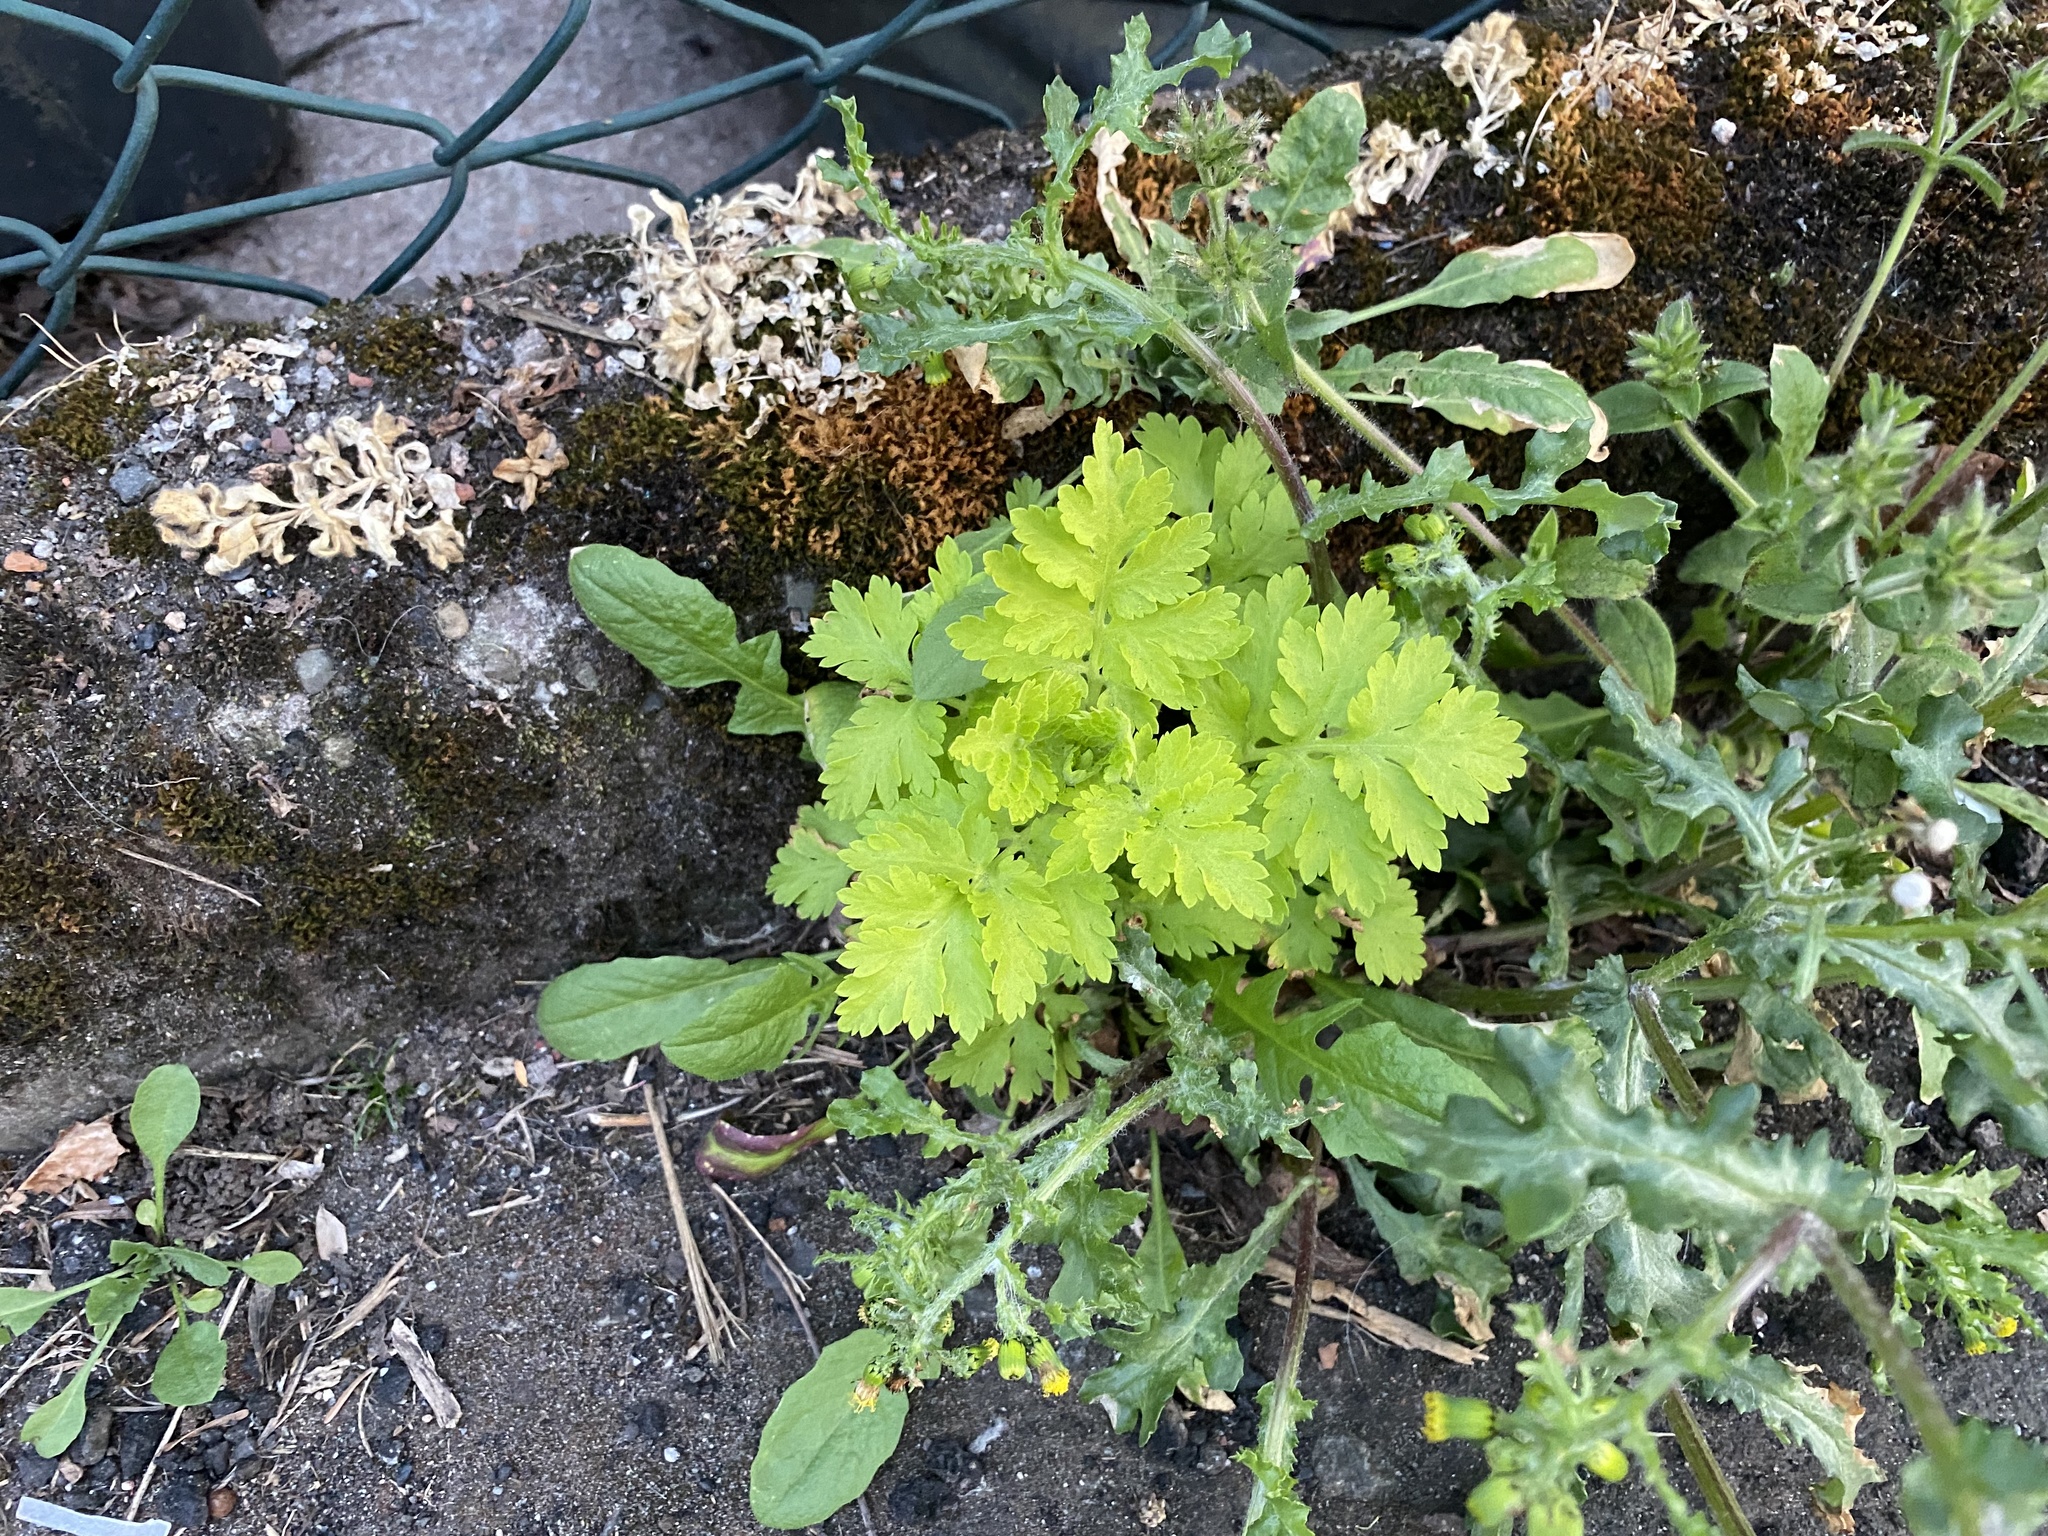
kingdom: Plantae
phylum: Tracheophyta
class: Magnoliopsida
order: Asterales
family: Asteraceae
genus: Tanacetum
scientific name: Tanacetum parthenium
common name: Feverfew
